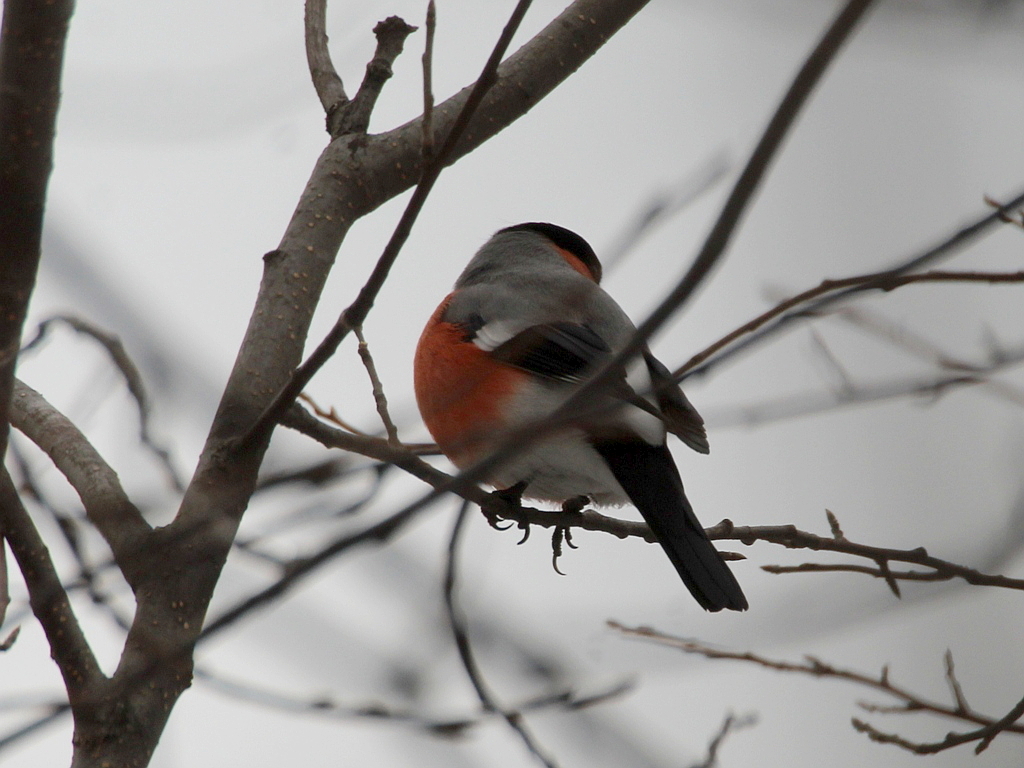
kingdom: Animalia
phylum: Chordata
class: Aves
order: Passeriformes
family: Fringillidae
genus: Pyrrhula
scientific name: Pyrrhula pyrrhula
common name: Eurasian bullfinch
